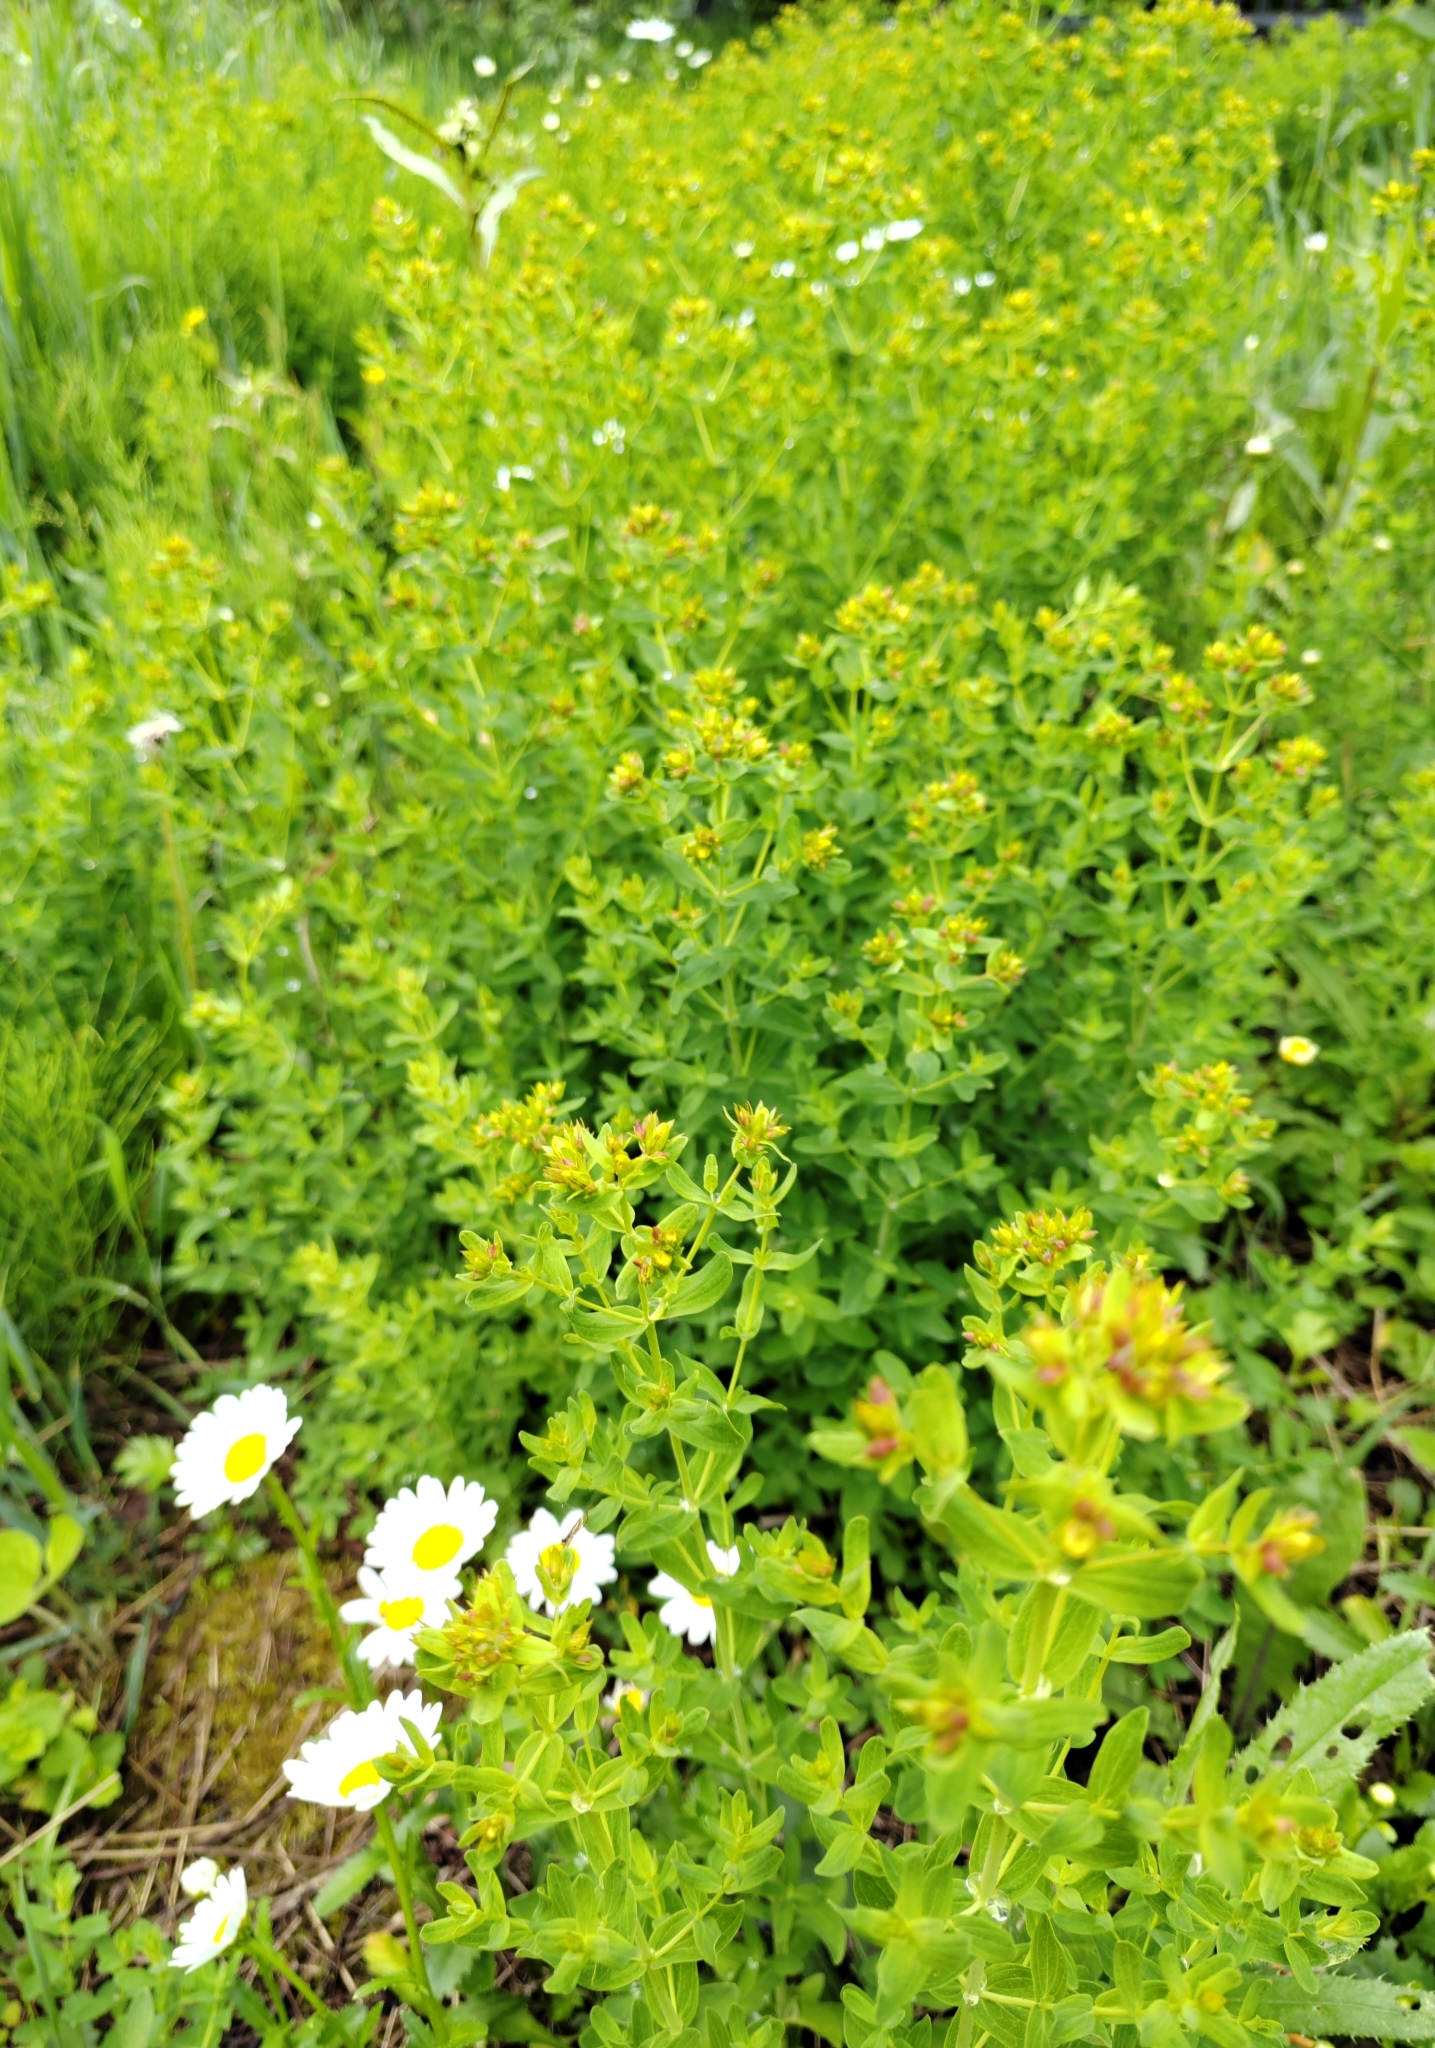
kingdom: Plantae
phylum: Tracheophyta
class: Magnoliopsida
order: Malpighiales
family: Hypericaceae
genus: Hypericum
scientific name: Hypericum perforatum
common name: Common st. johnswort
